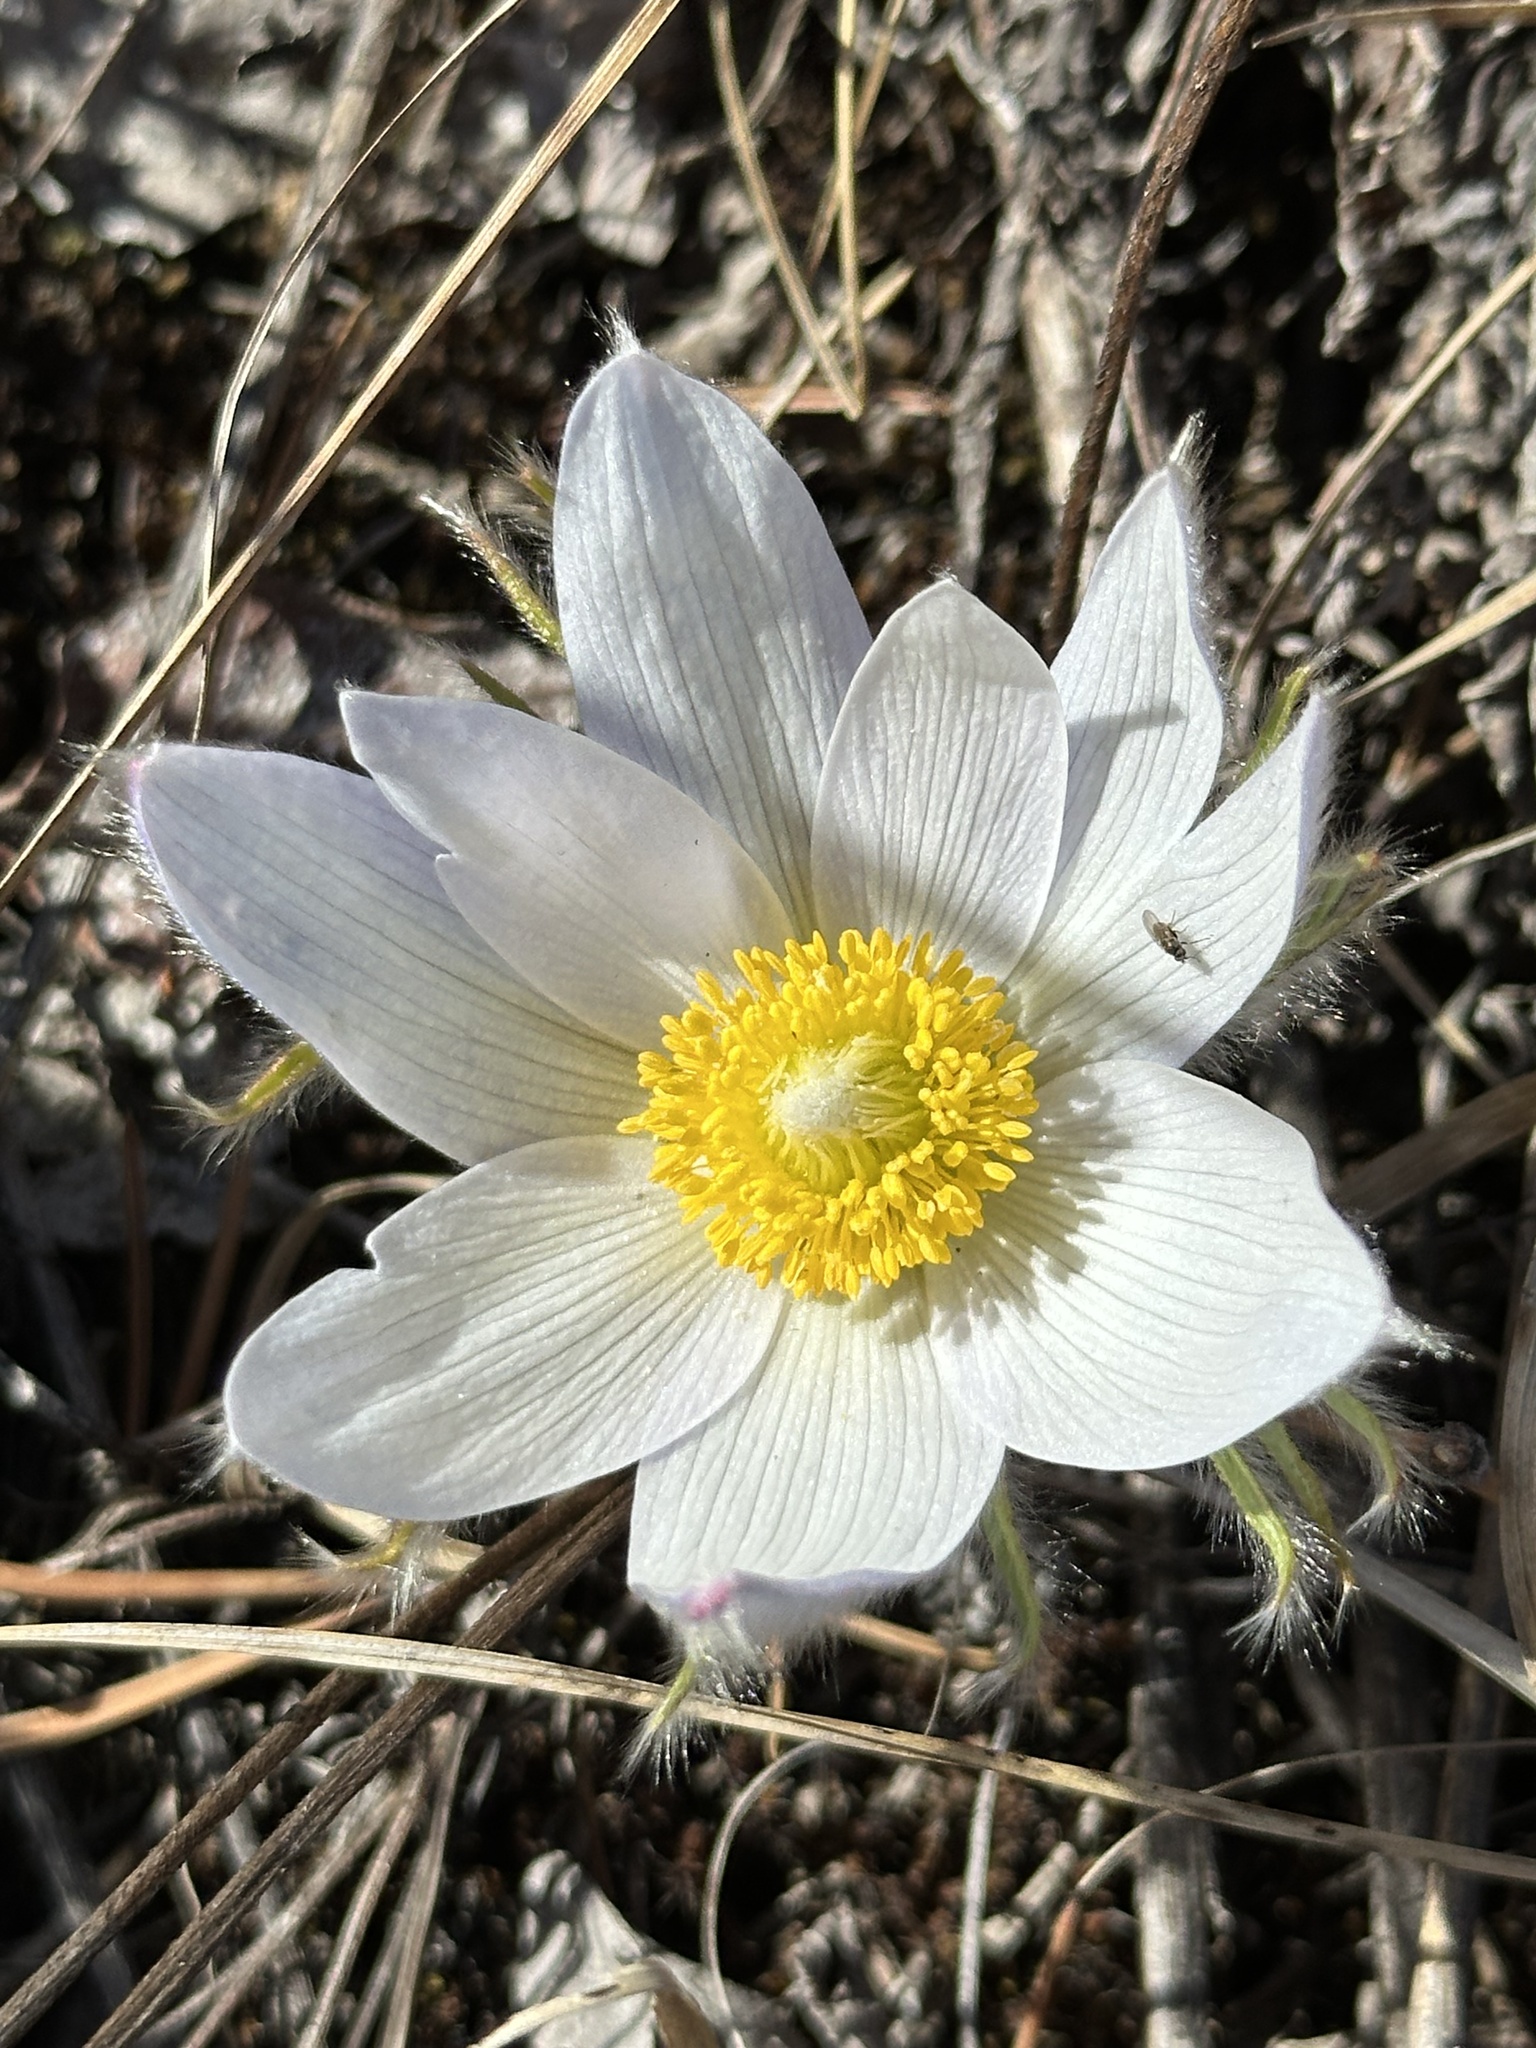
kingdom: Plantae
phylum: Tracheophyta
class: Magnoliopsida
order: Ranunculales
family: Ranunculaceae
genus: Pulsatilla
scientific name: Pulsatilla nuttalliana
